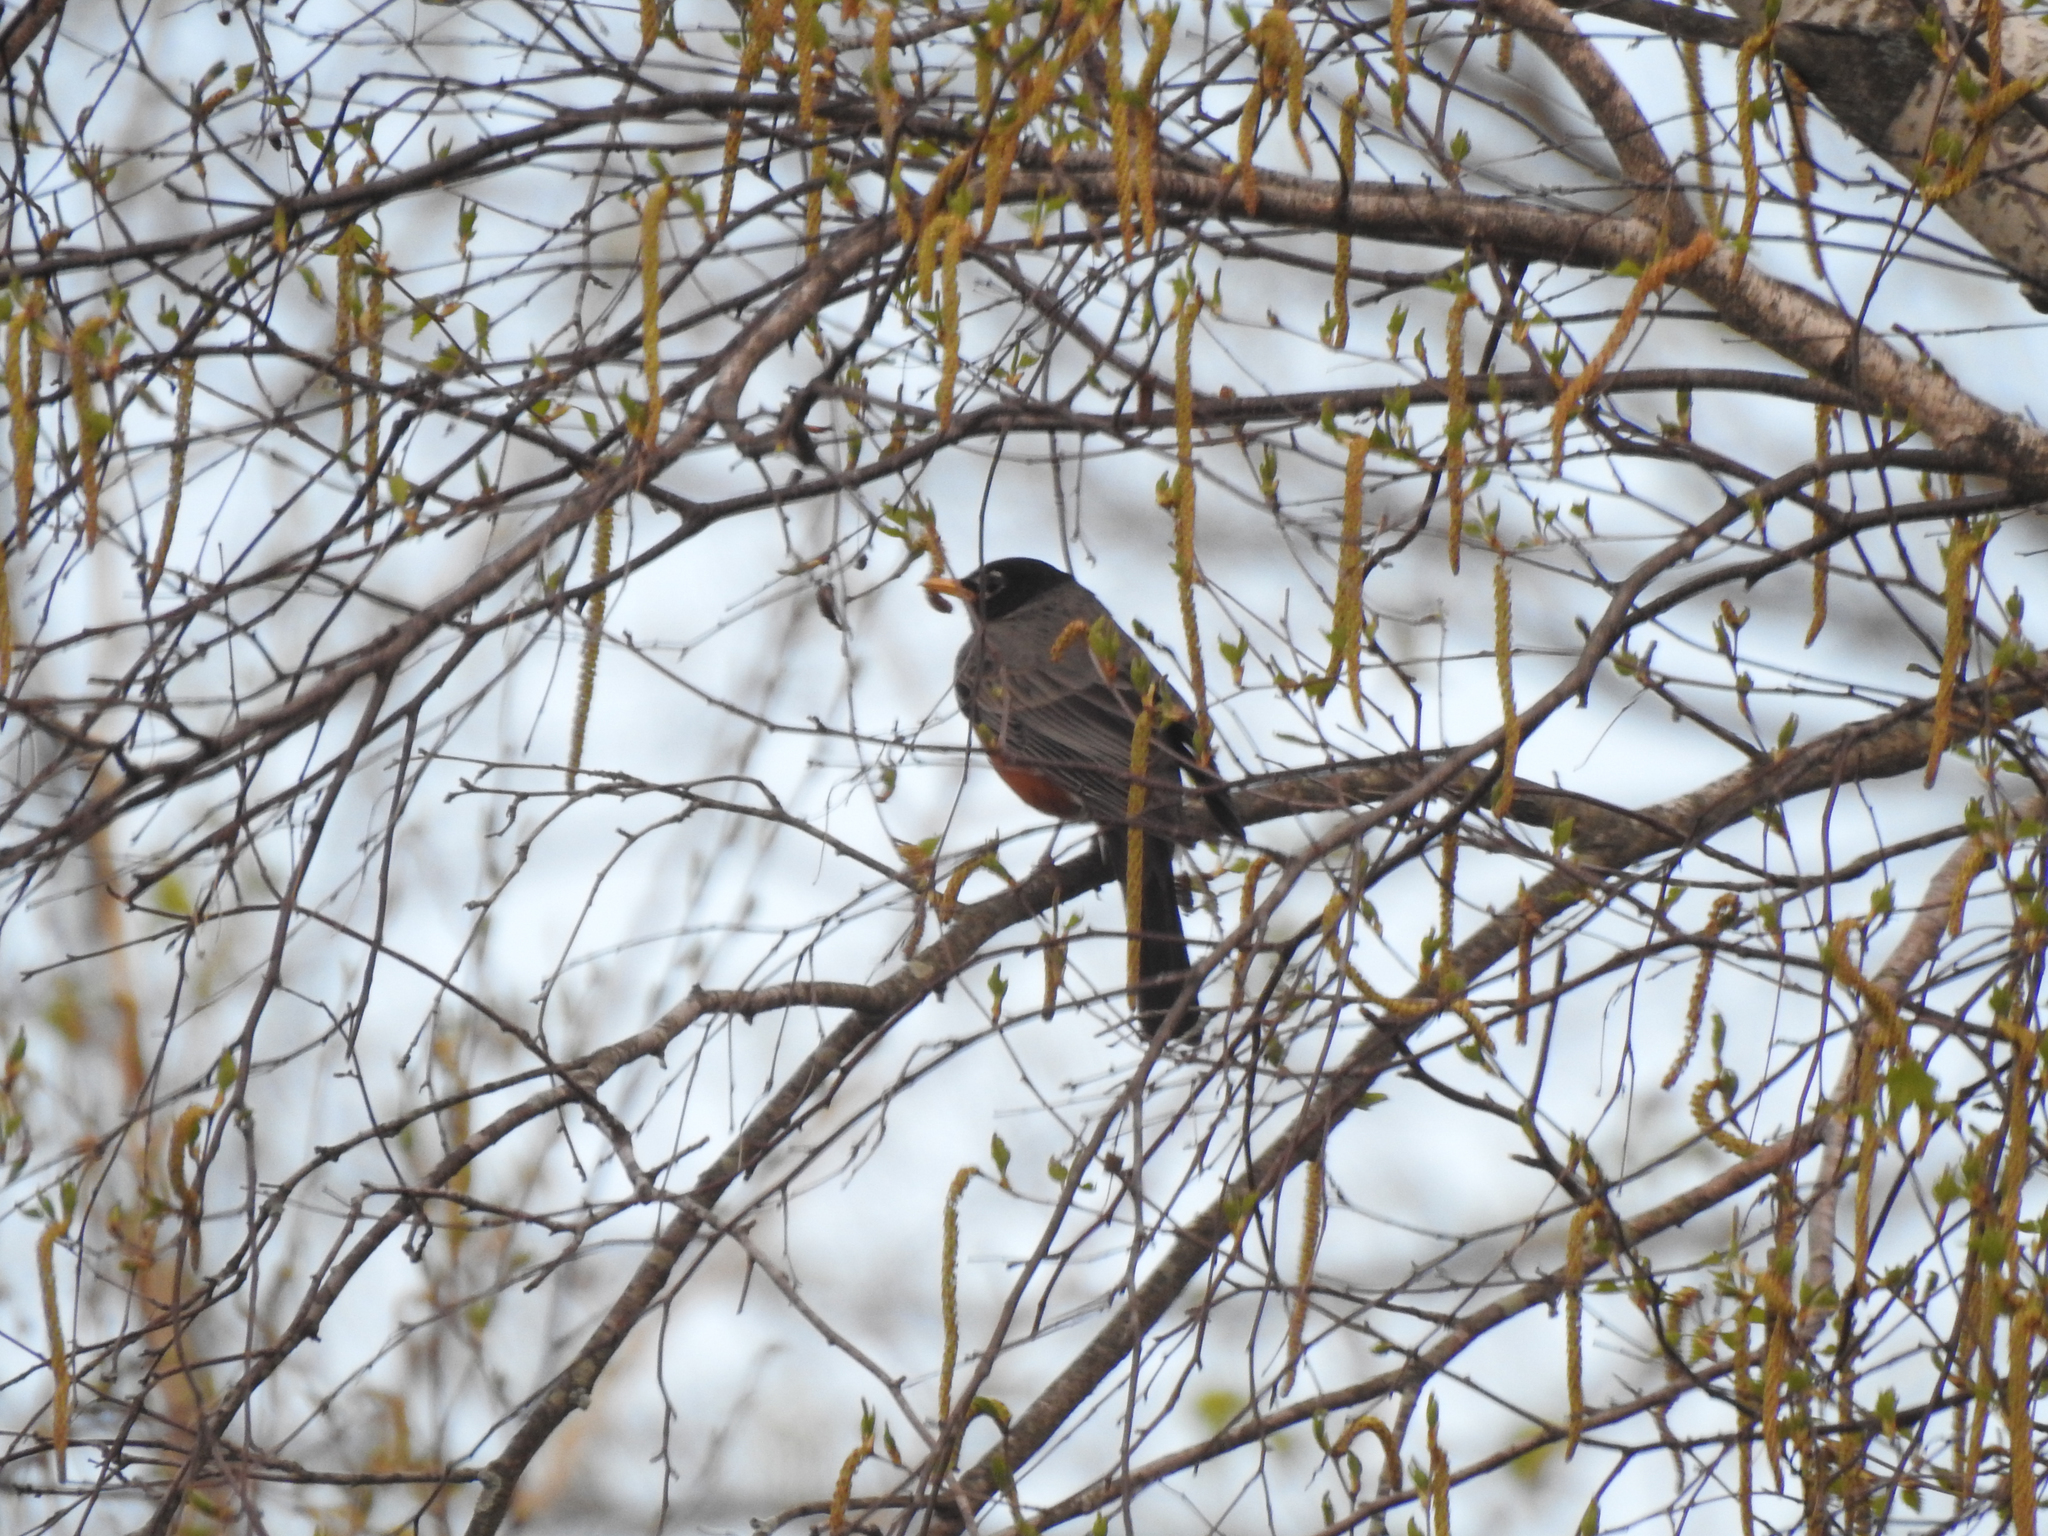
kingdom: Animalia
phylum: Chordata
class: Aves
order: Passeriformes
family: Turdidae
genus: Turdus
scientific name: Turdus migratorius
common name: American robin
